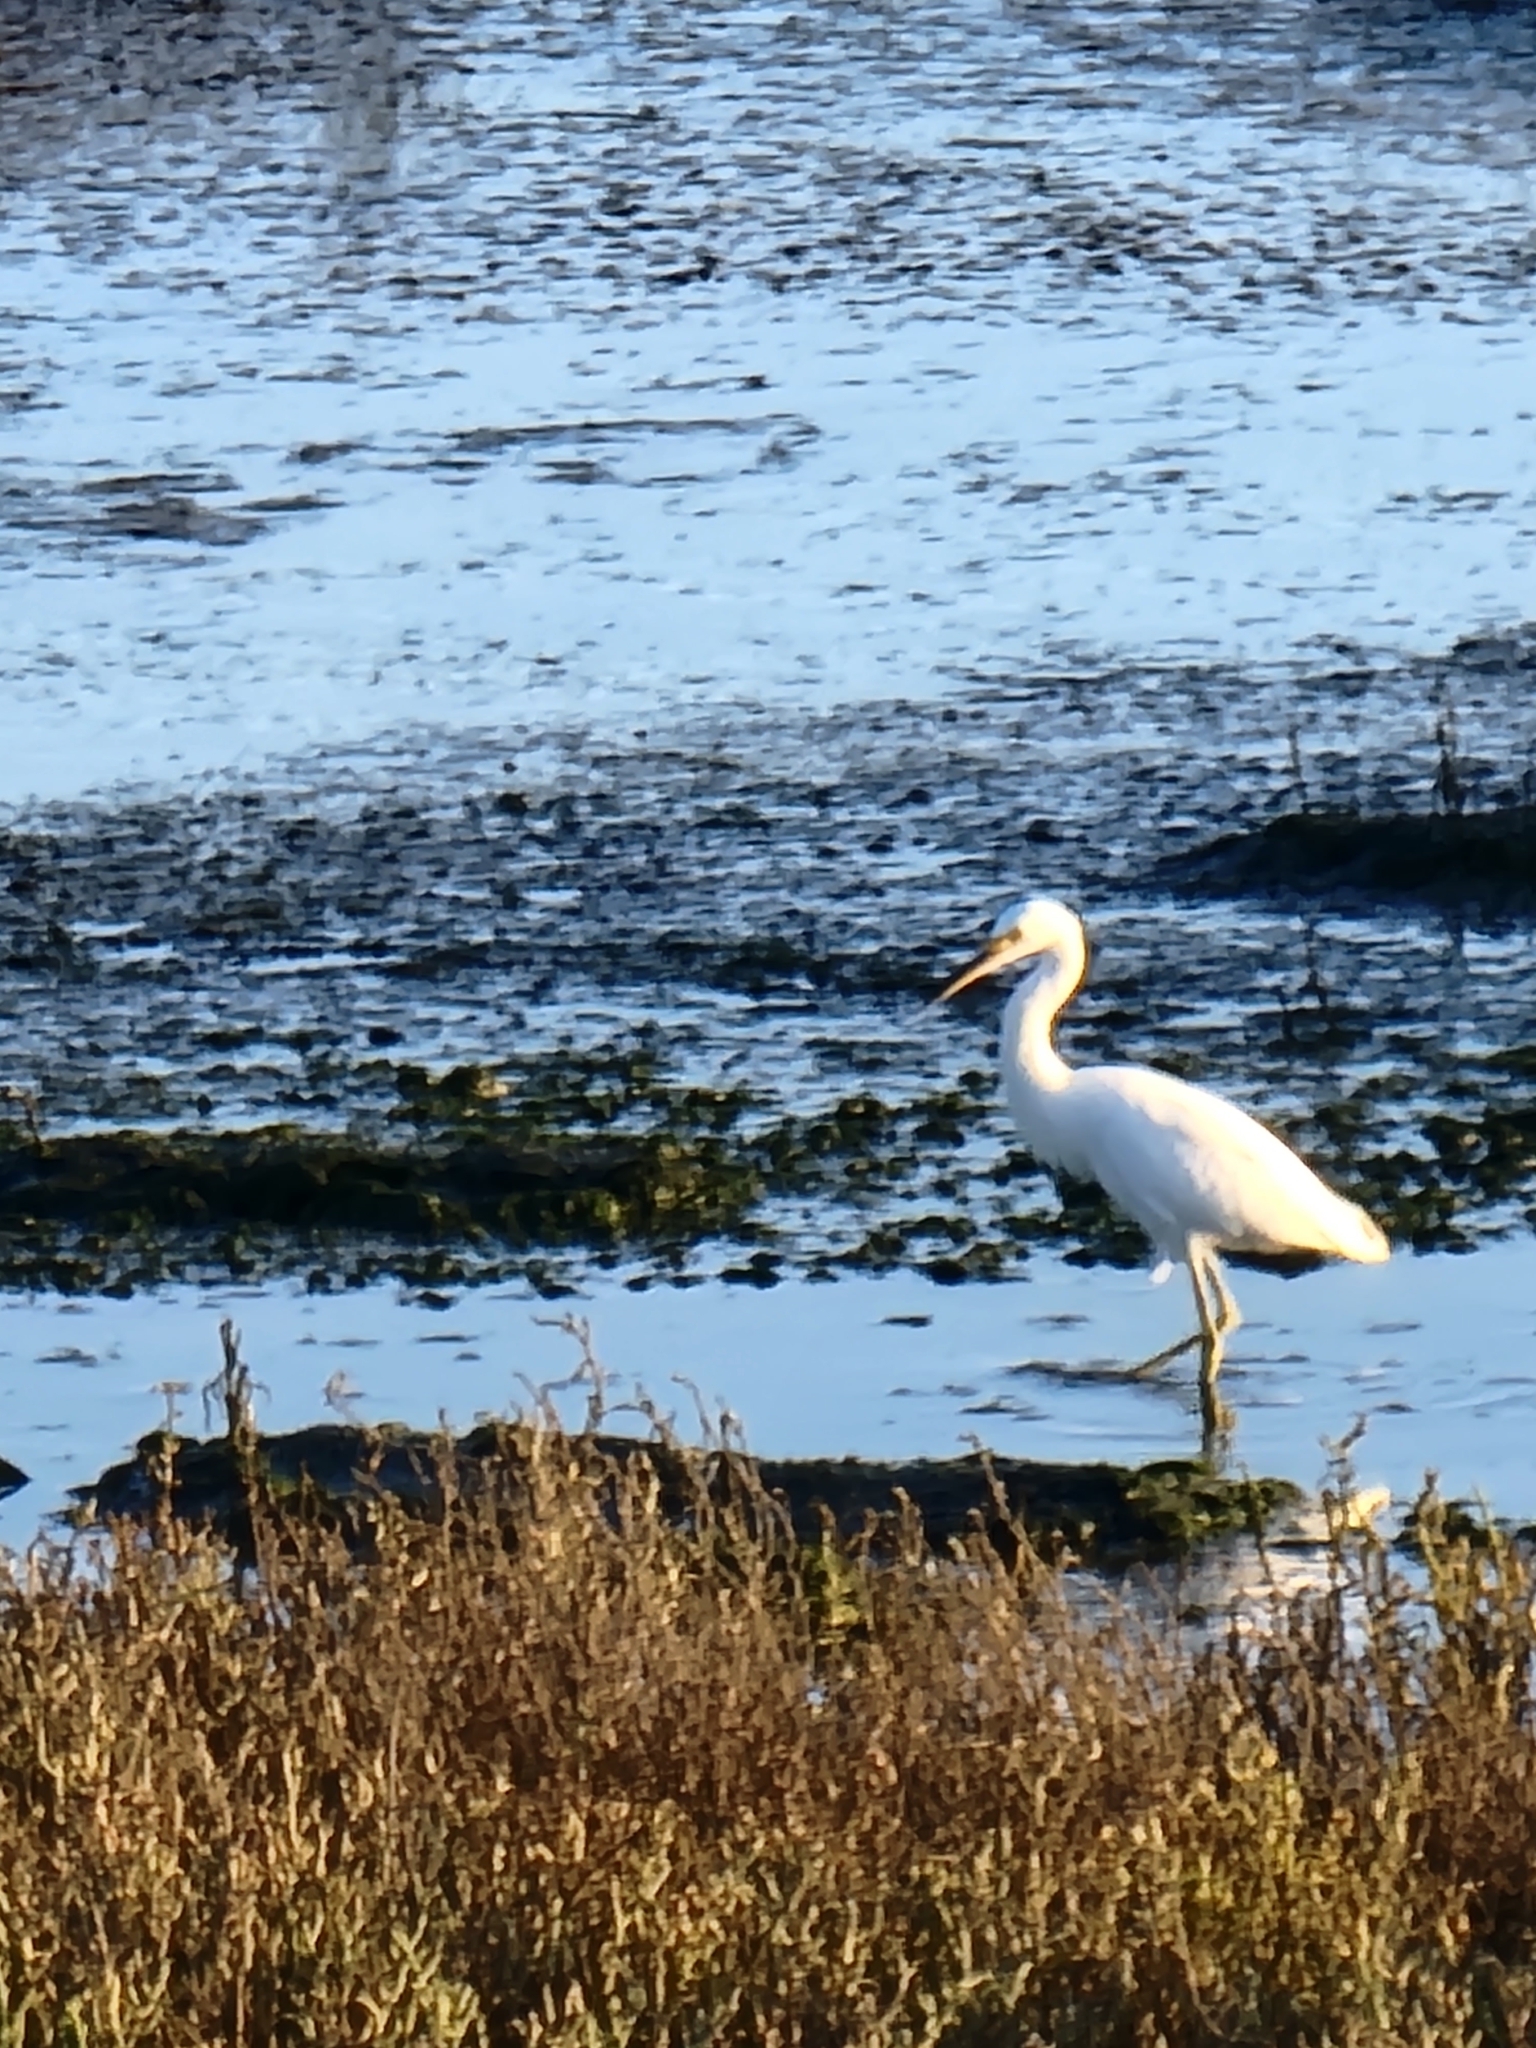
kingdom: Animalia
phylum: Chordata
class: Aves
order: Pelecaniformes
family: Ardeidae
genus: Egretta
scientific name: Egretta thula
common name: Snowy egret
